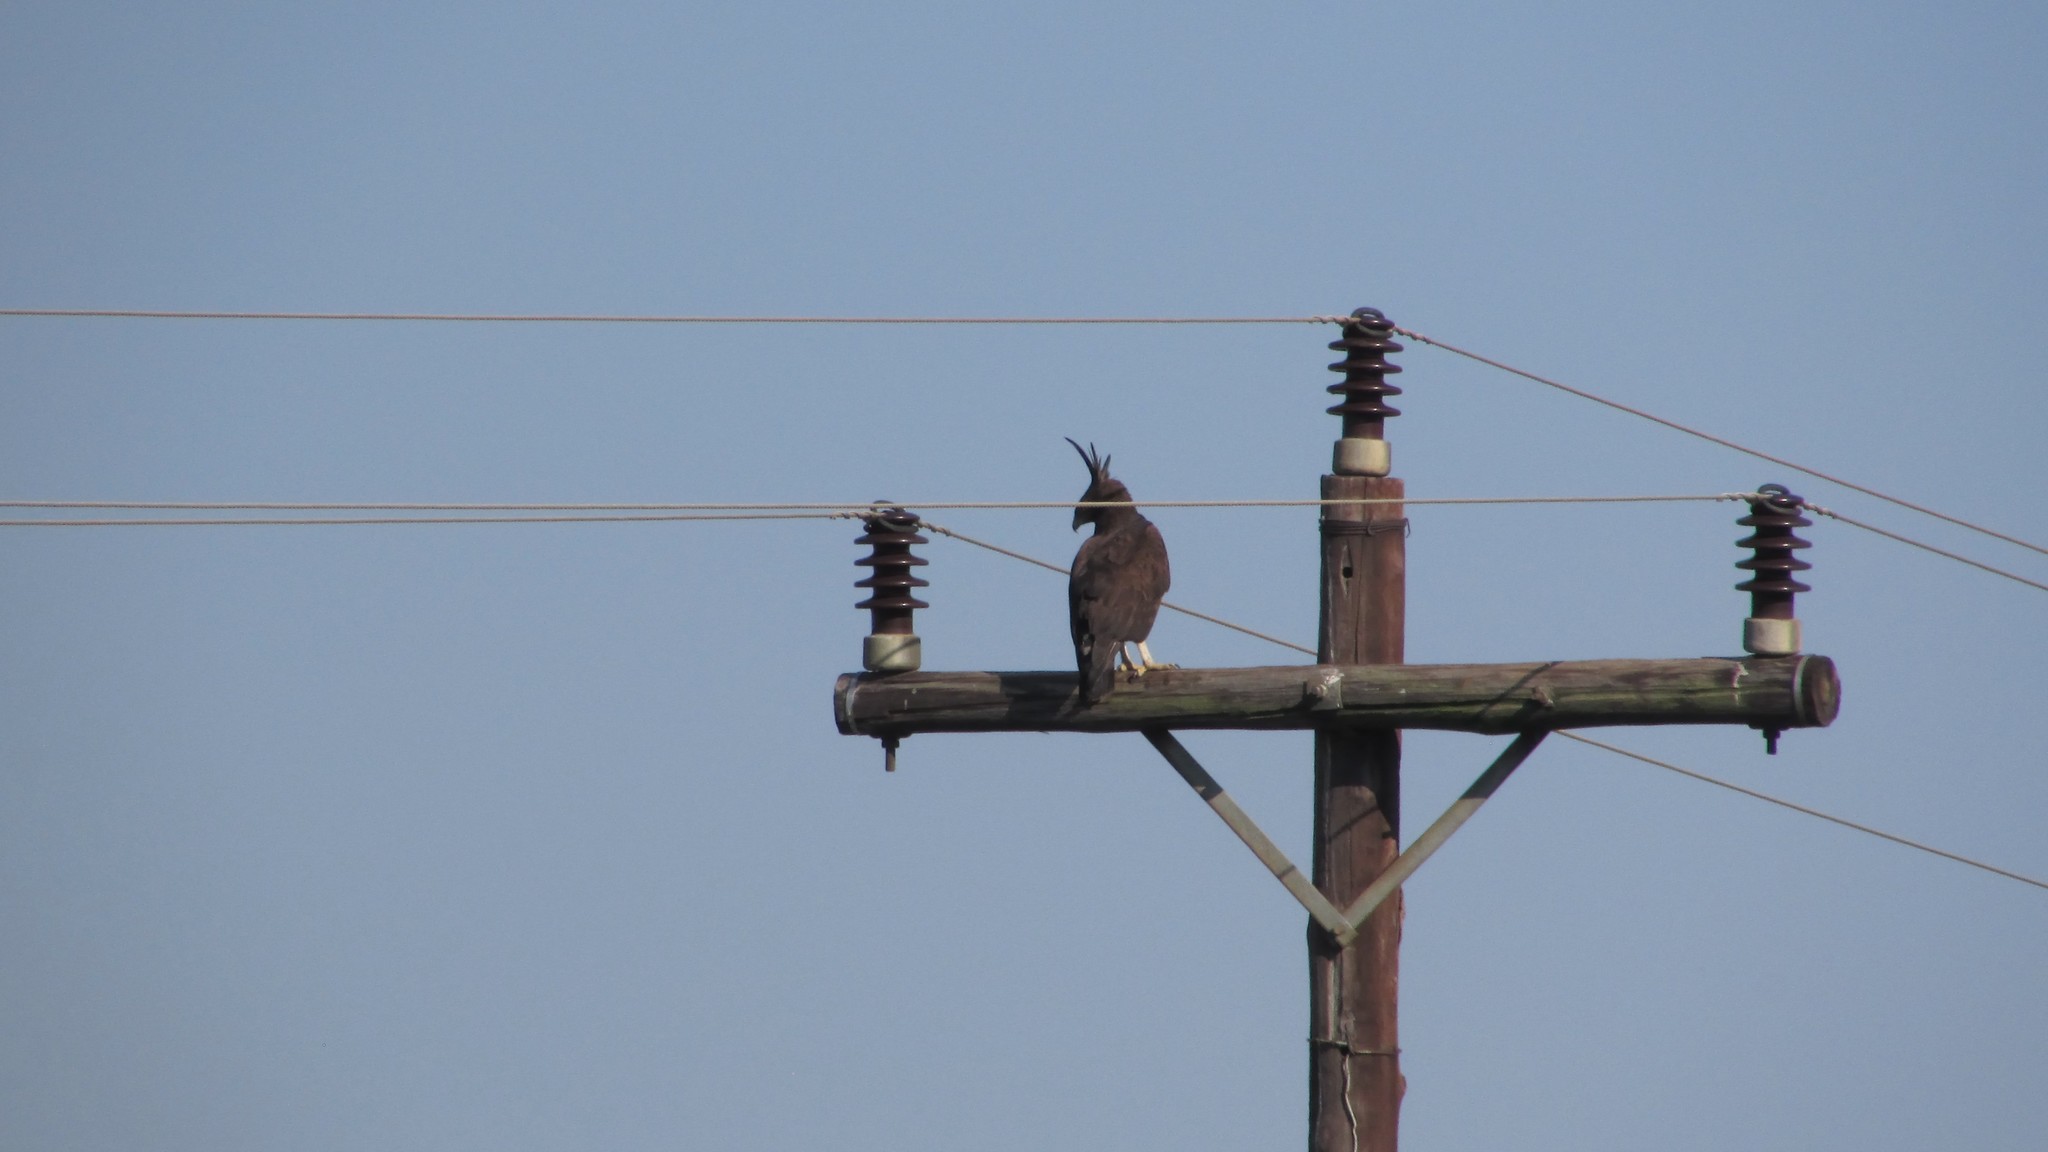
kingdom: Animalia
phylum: Chordata
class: Aves
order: Accipitriformes
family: Accipitridae
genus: Lophaetus
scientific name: Lophaetus occipitalis
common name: Long-crested eagle
